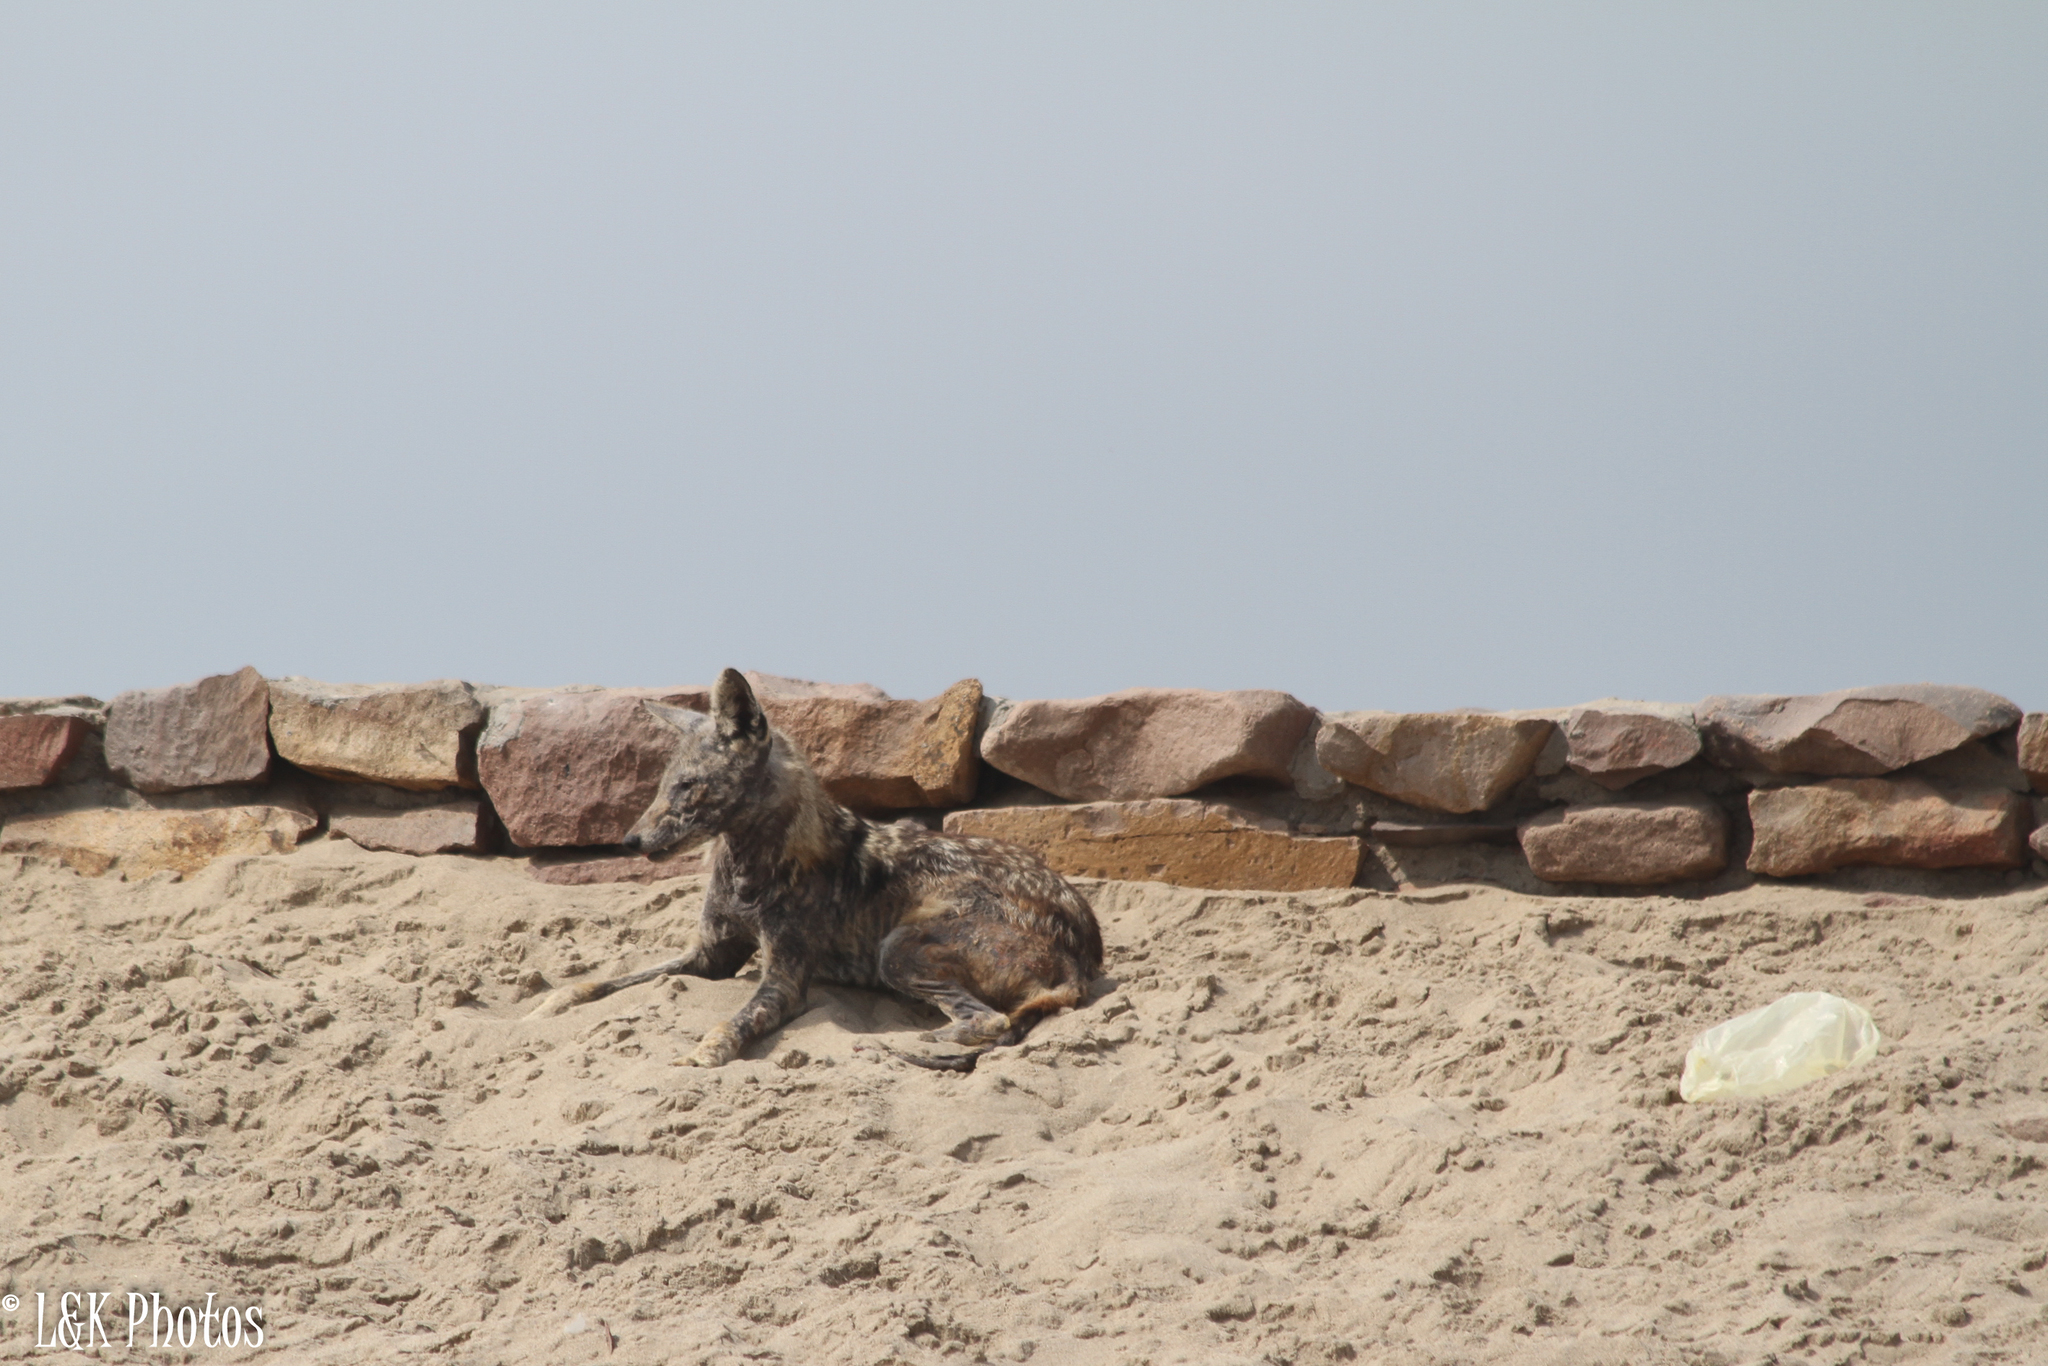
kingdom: Animalia
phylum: Chordata
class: Mammalia
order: Carnivora
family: Canidae
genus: Lupulella
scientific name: Lupulella
